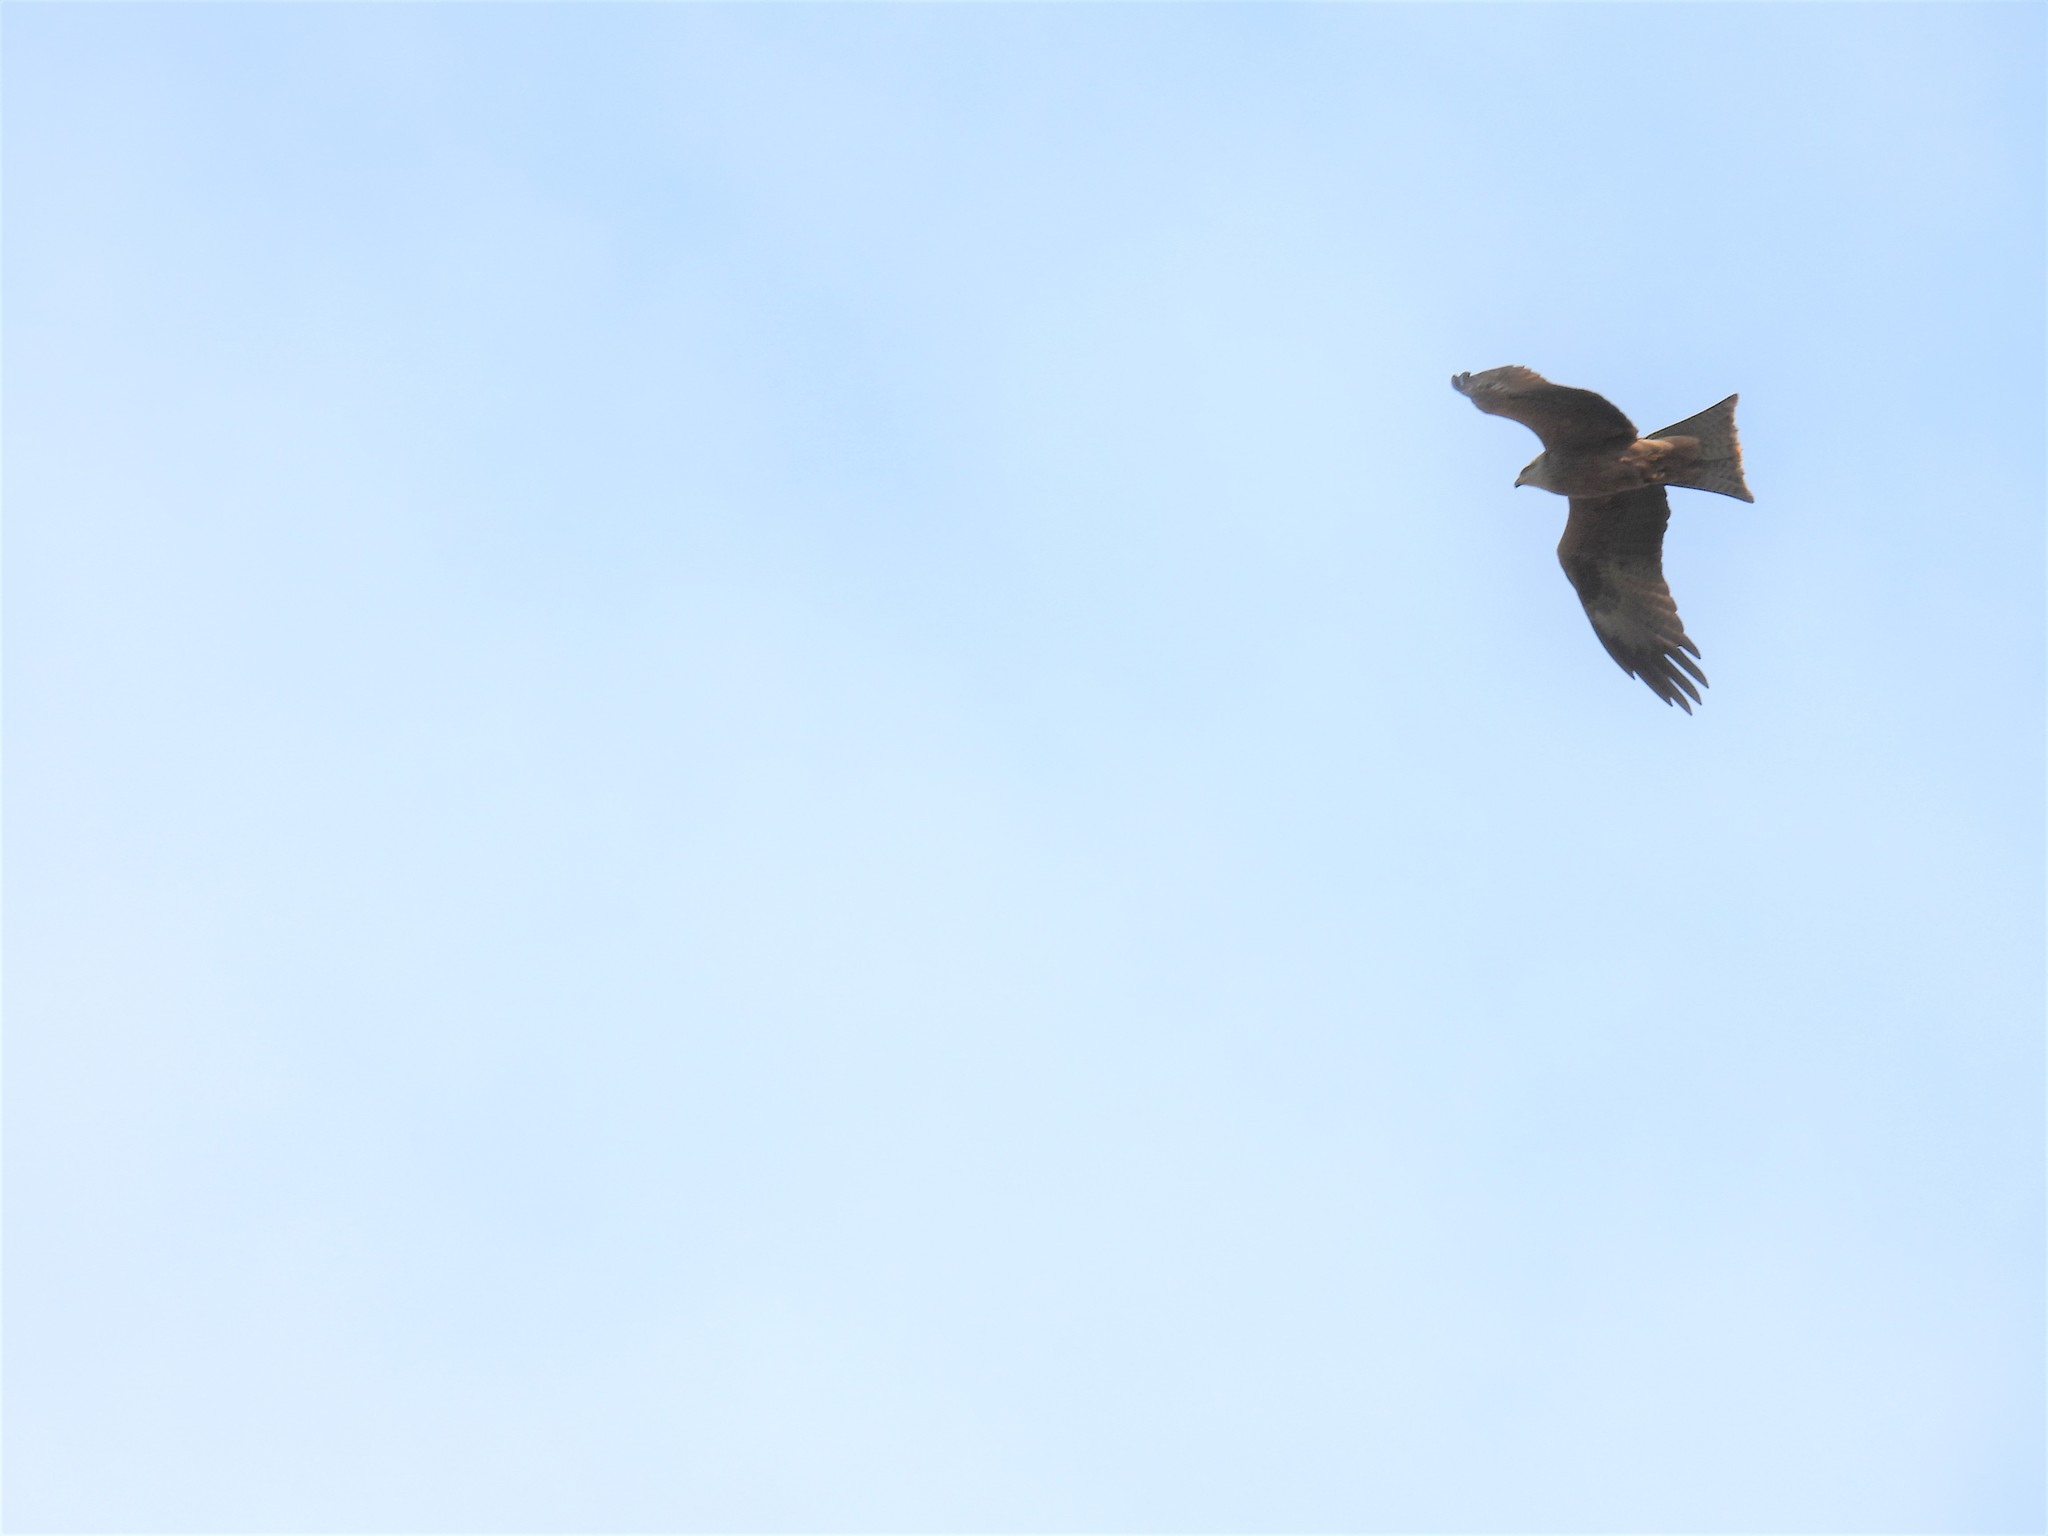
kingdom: Animalia
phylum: Chordata
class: Aves
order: Accipitriformes
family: Accipitridae
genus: Milvus
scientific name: Milvus milvus
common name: Red kite
